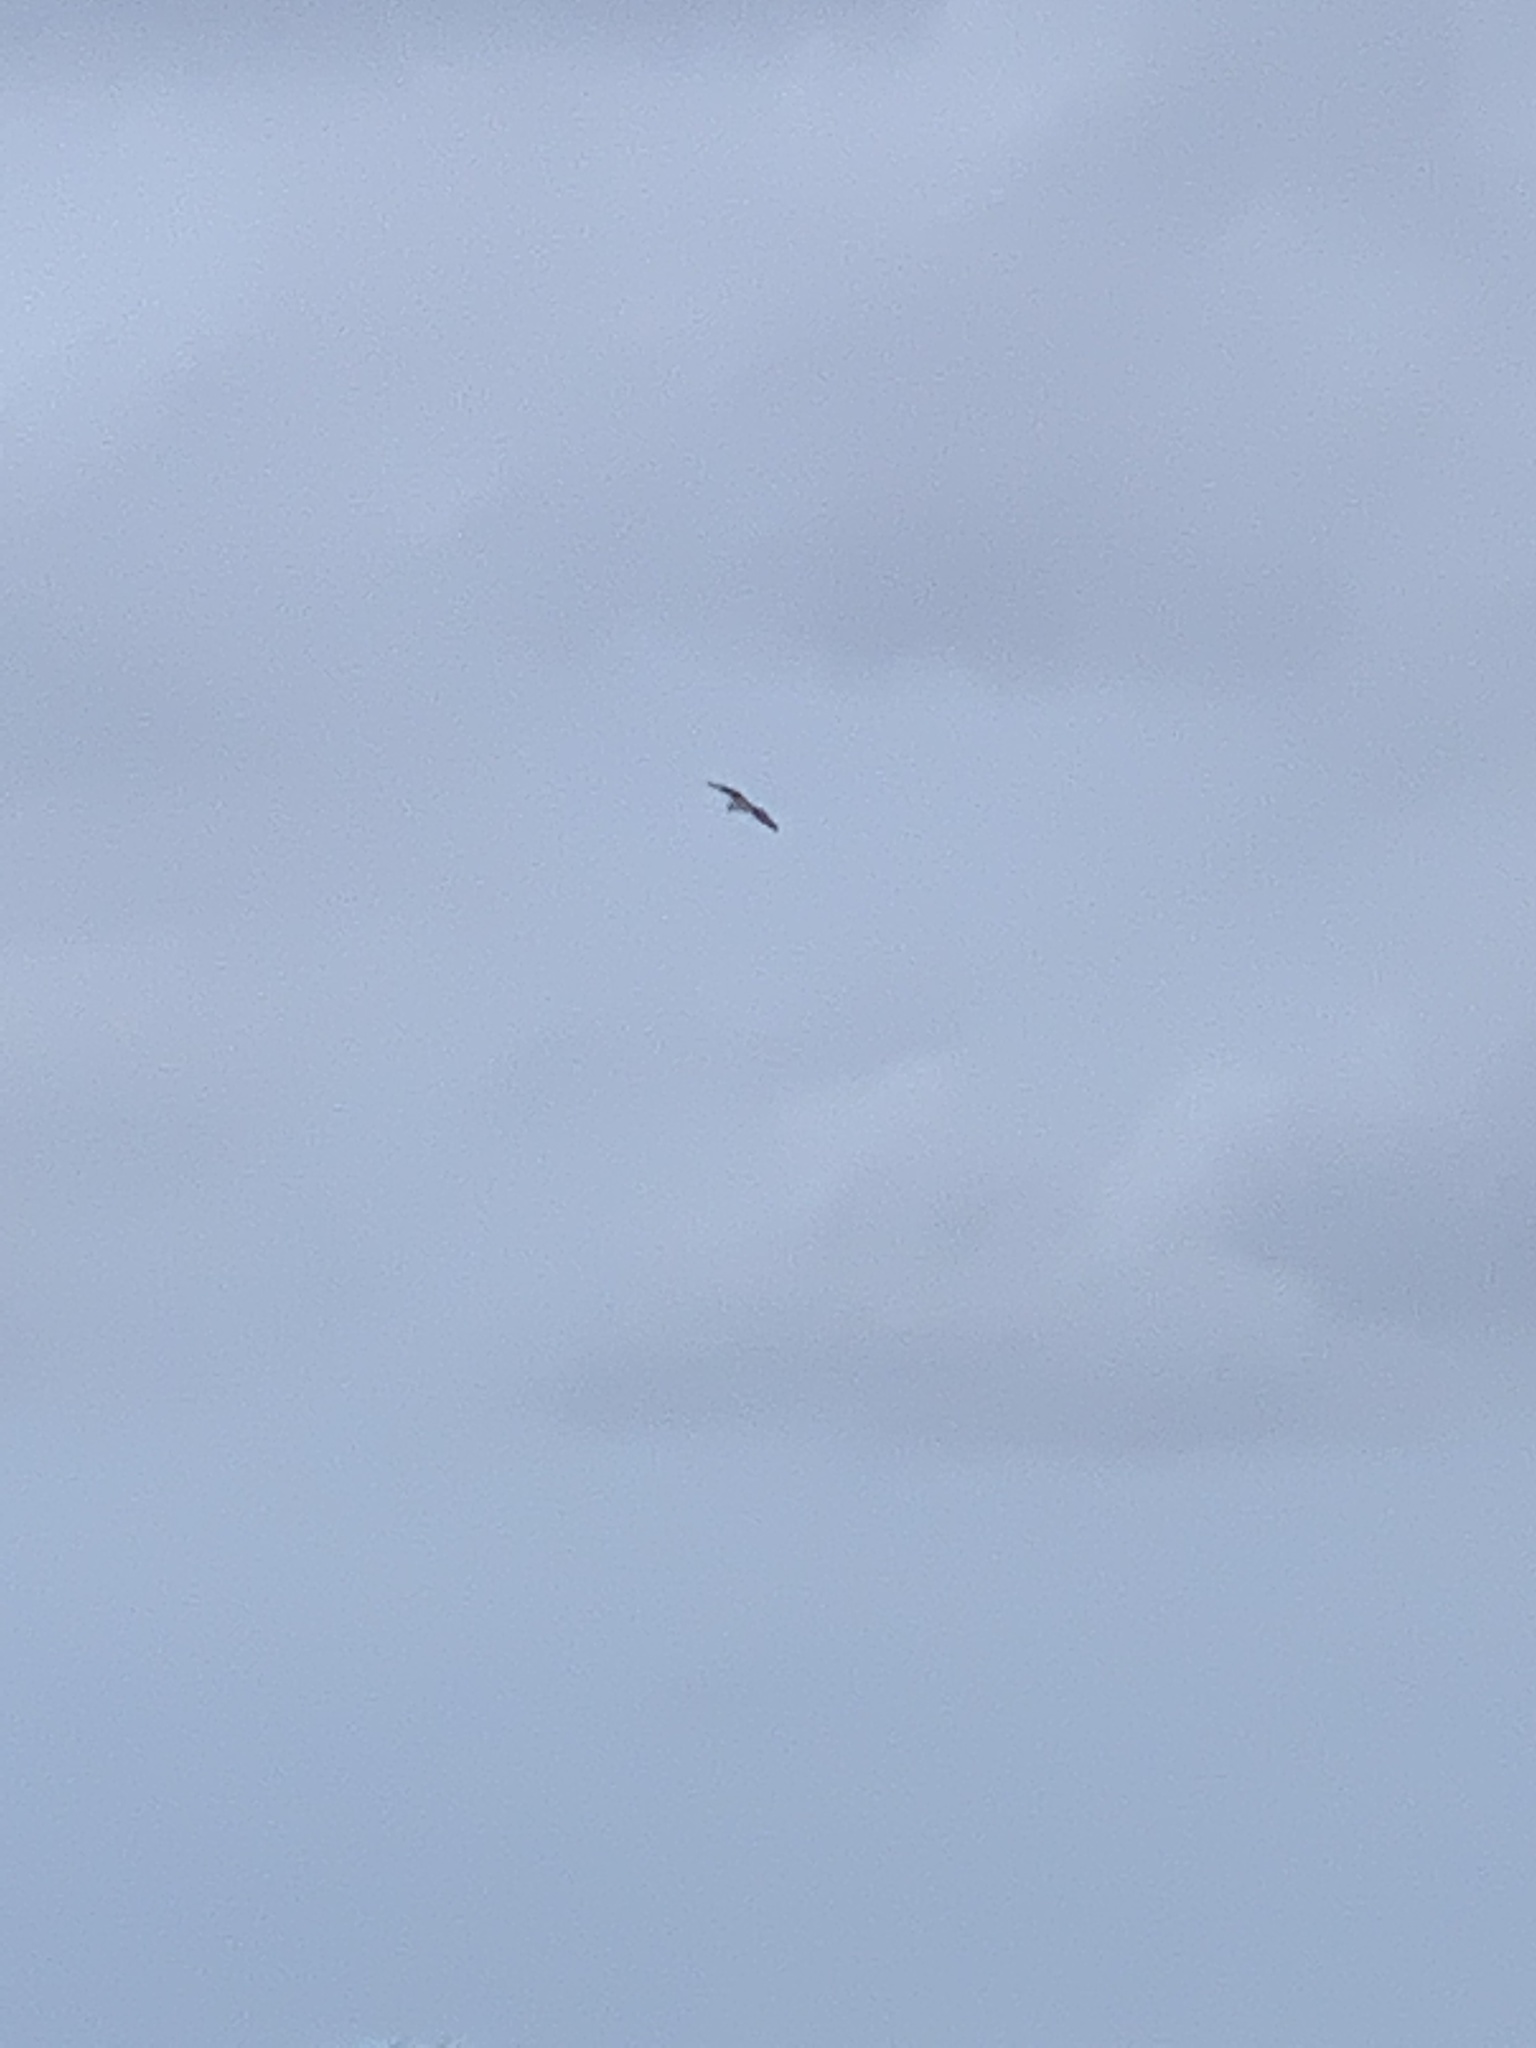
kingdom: Animalia
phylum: Chordata
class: Aves
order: Accipitriformes
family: Pandionidae
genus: Pandion
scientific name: Pandion haliaetus
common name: Osprey
